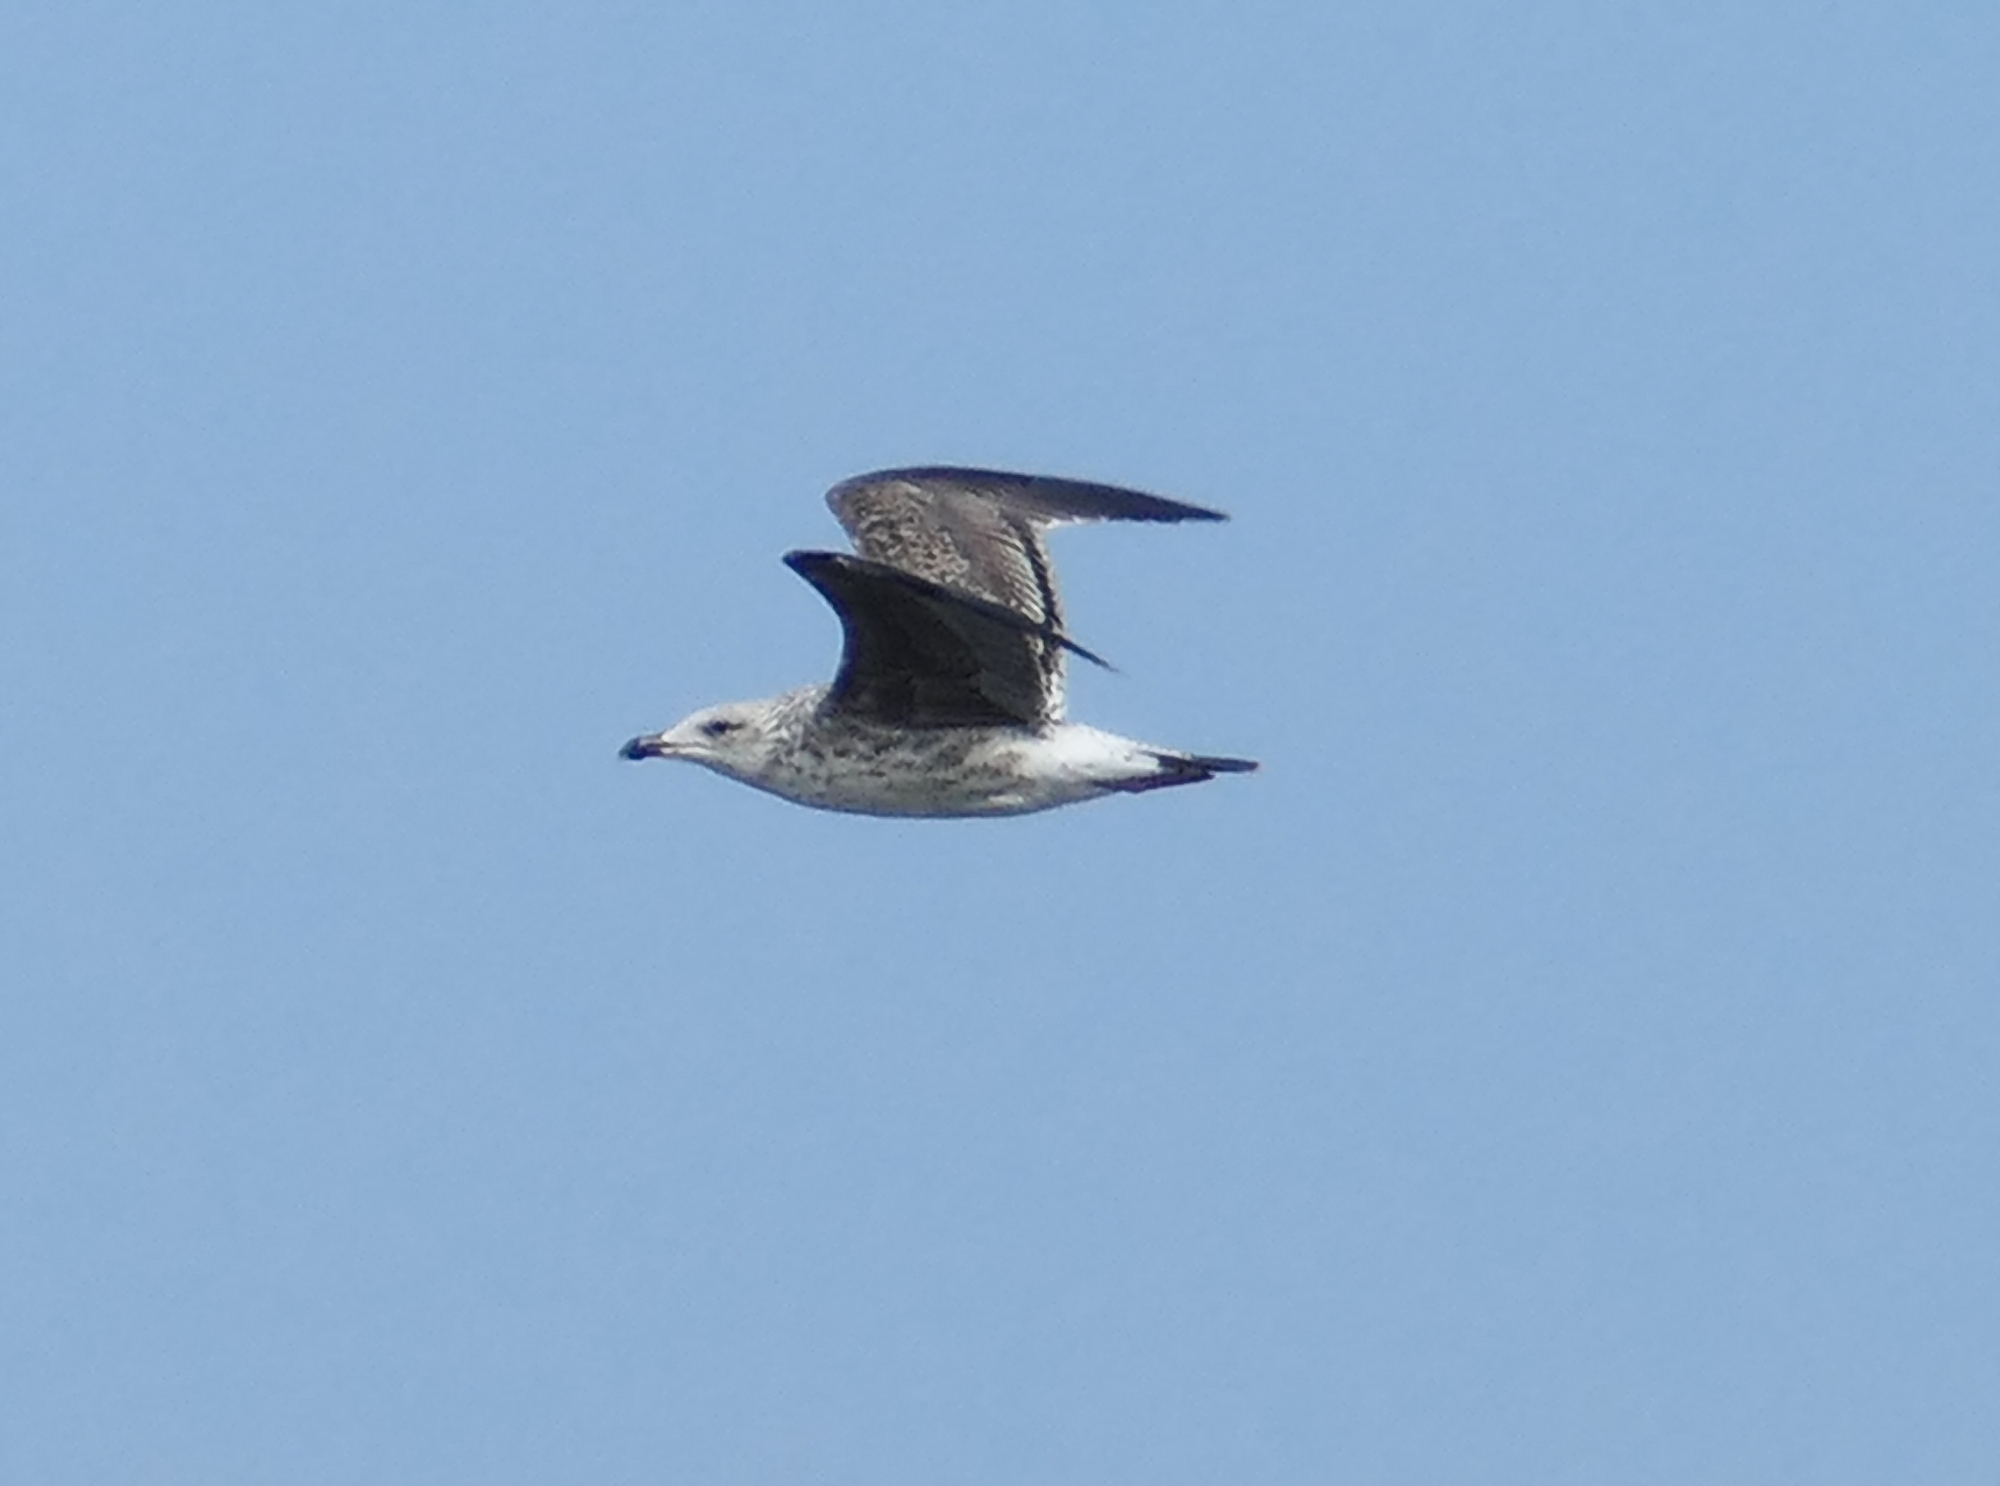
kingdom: Animalia
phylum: Chordata
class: Aves
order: Charadriiformes
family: Laridae
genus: Larus
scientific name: Larus marinus
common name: Great black-backed gull
